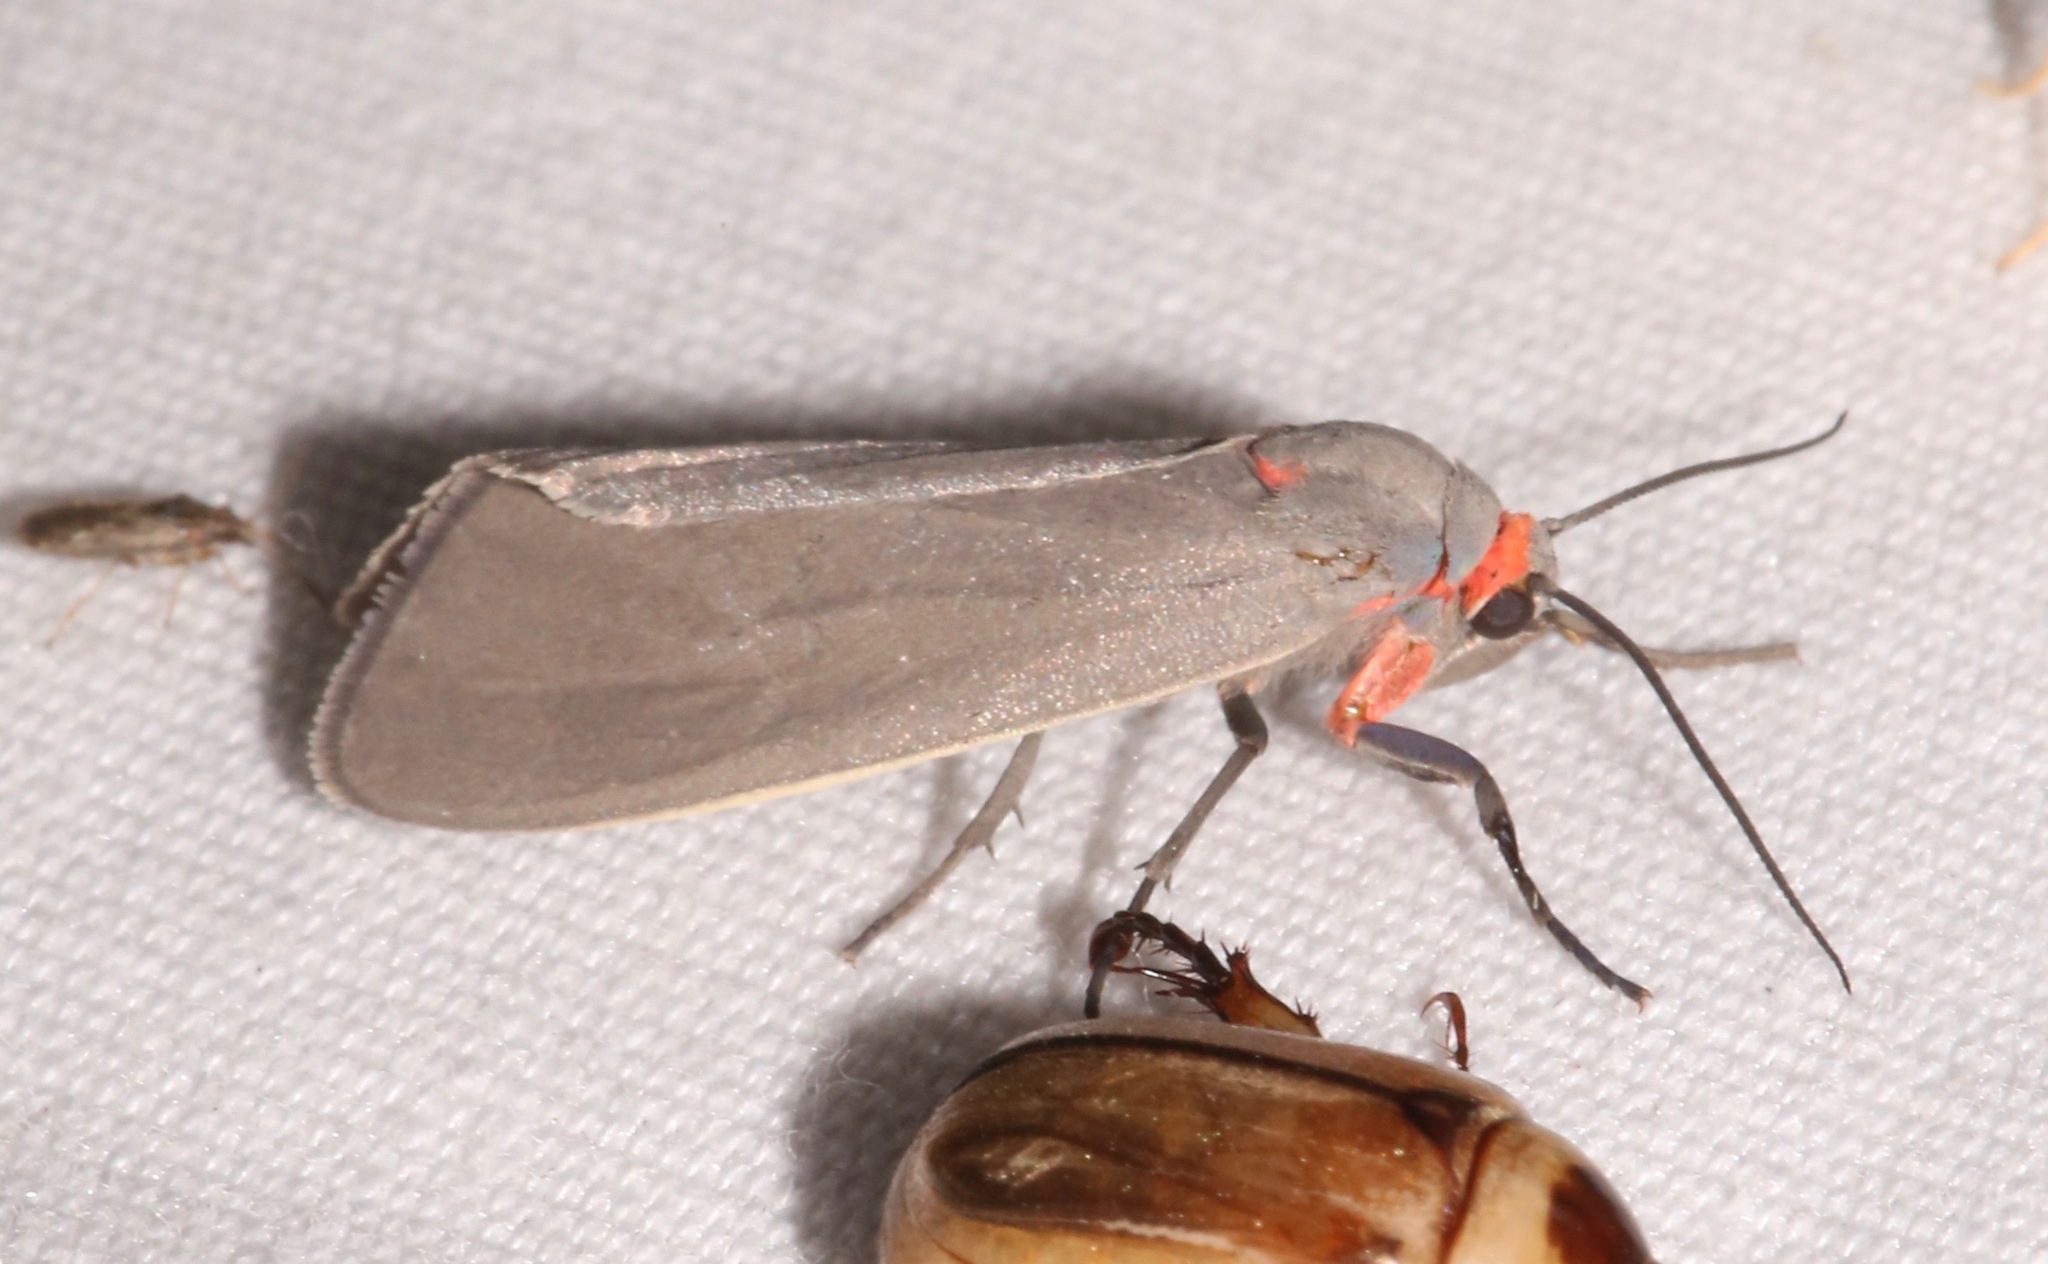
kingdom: Animalia
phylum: Arthropoda
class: Insecta
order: Lepidoptera
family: Erebidae
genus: Pygarctia
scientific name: Pygarctia murina
